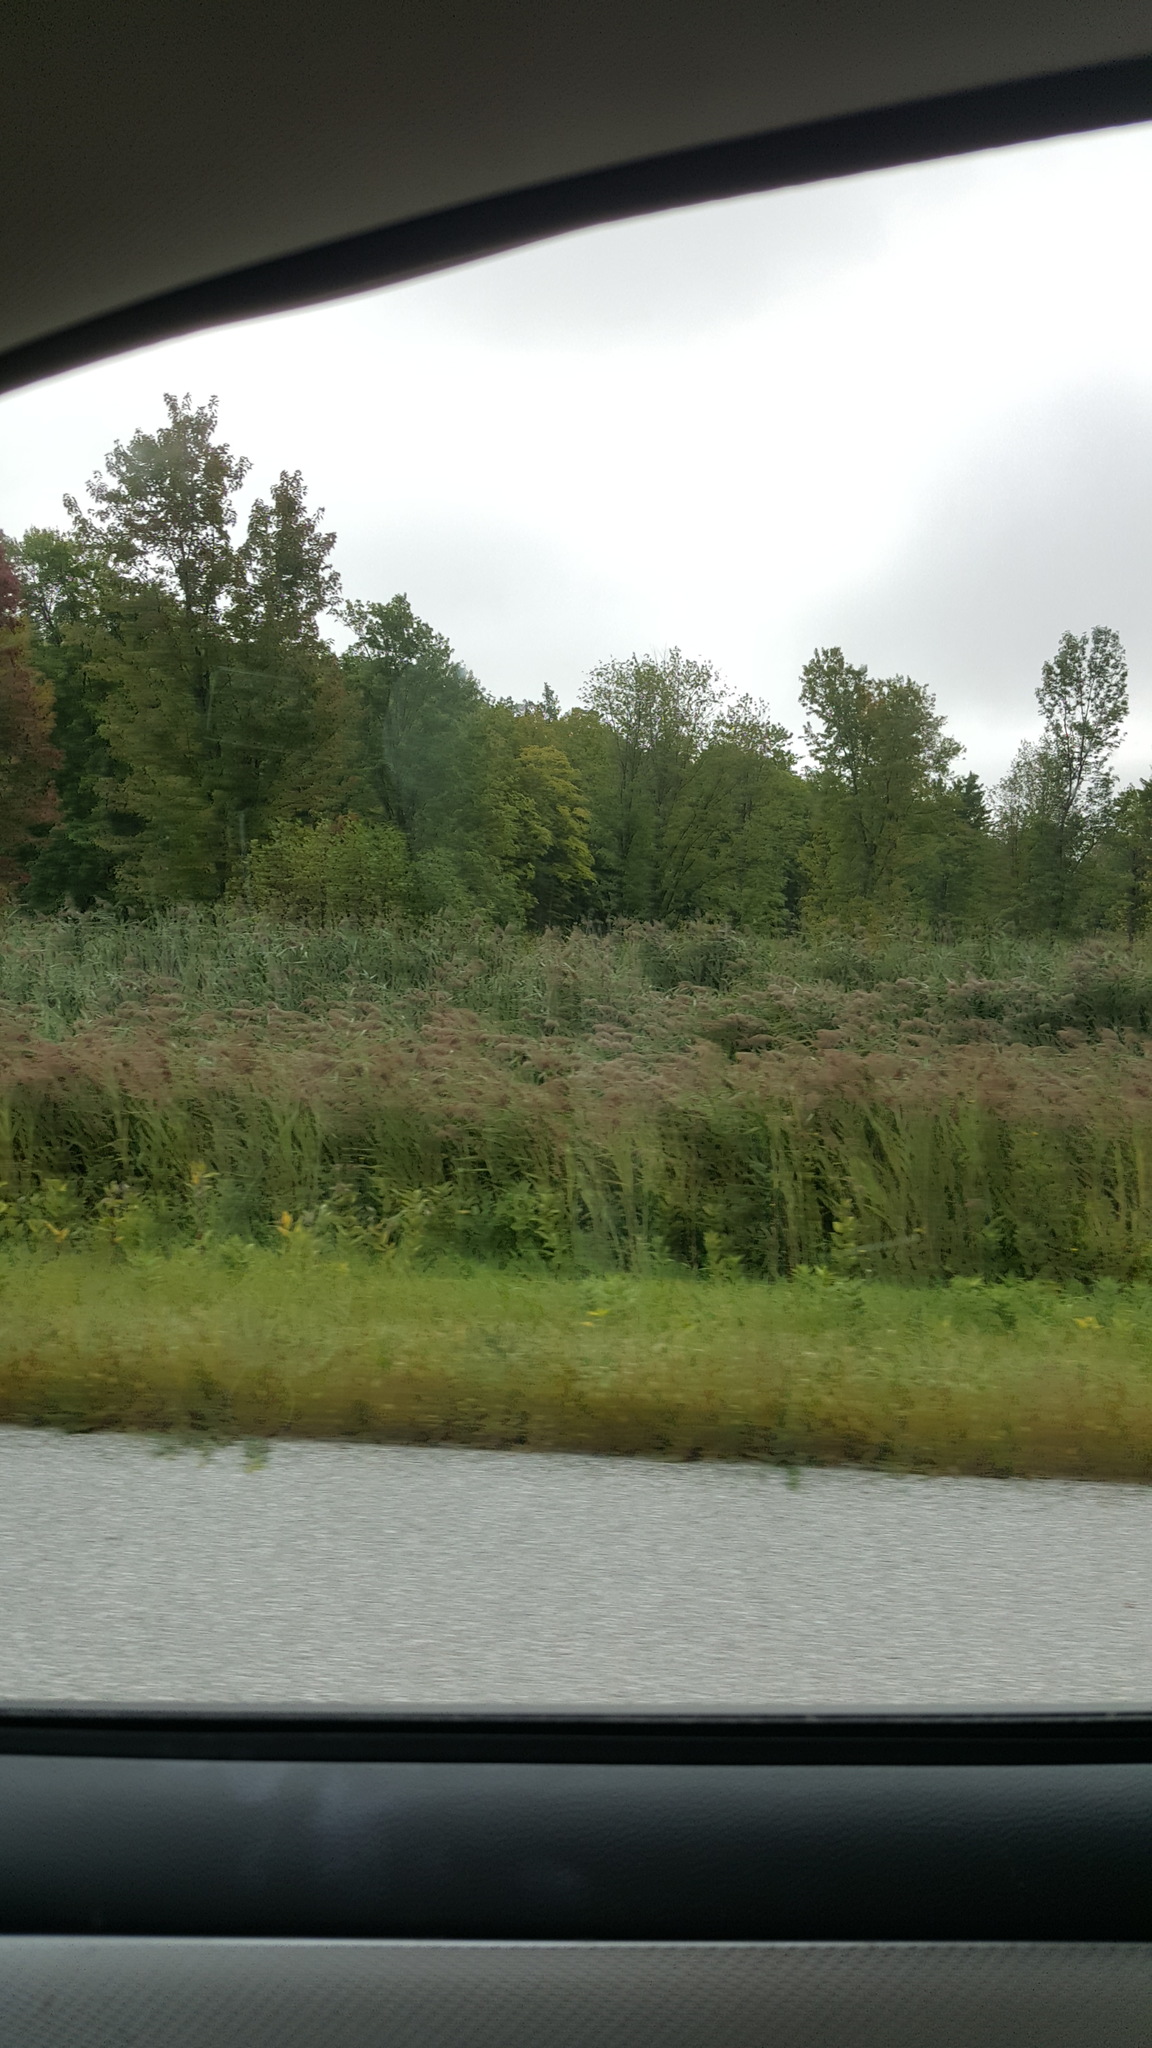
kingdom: Plantae
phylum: Tracheophyta
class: Liliopsida
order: Poales
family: Poaceae
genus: Phragmites
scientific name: Phragmites australis
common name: Common reed
